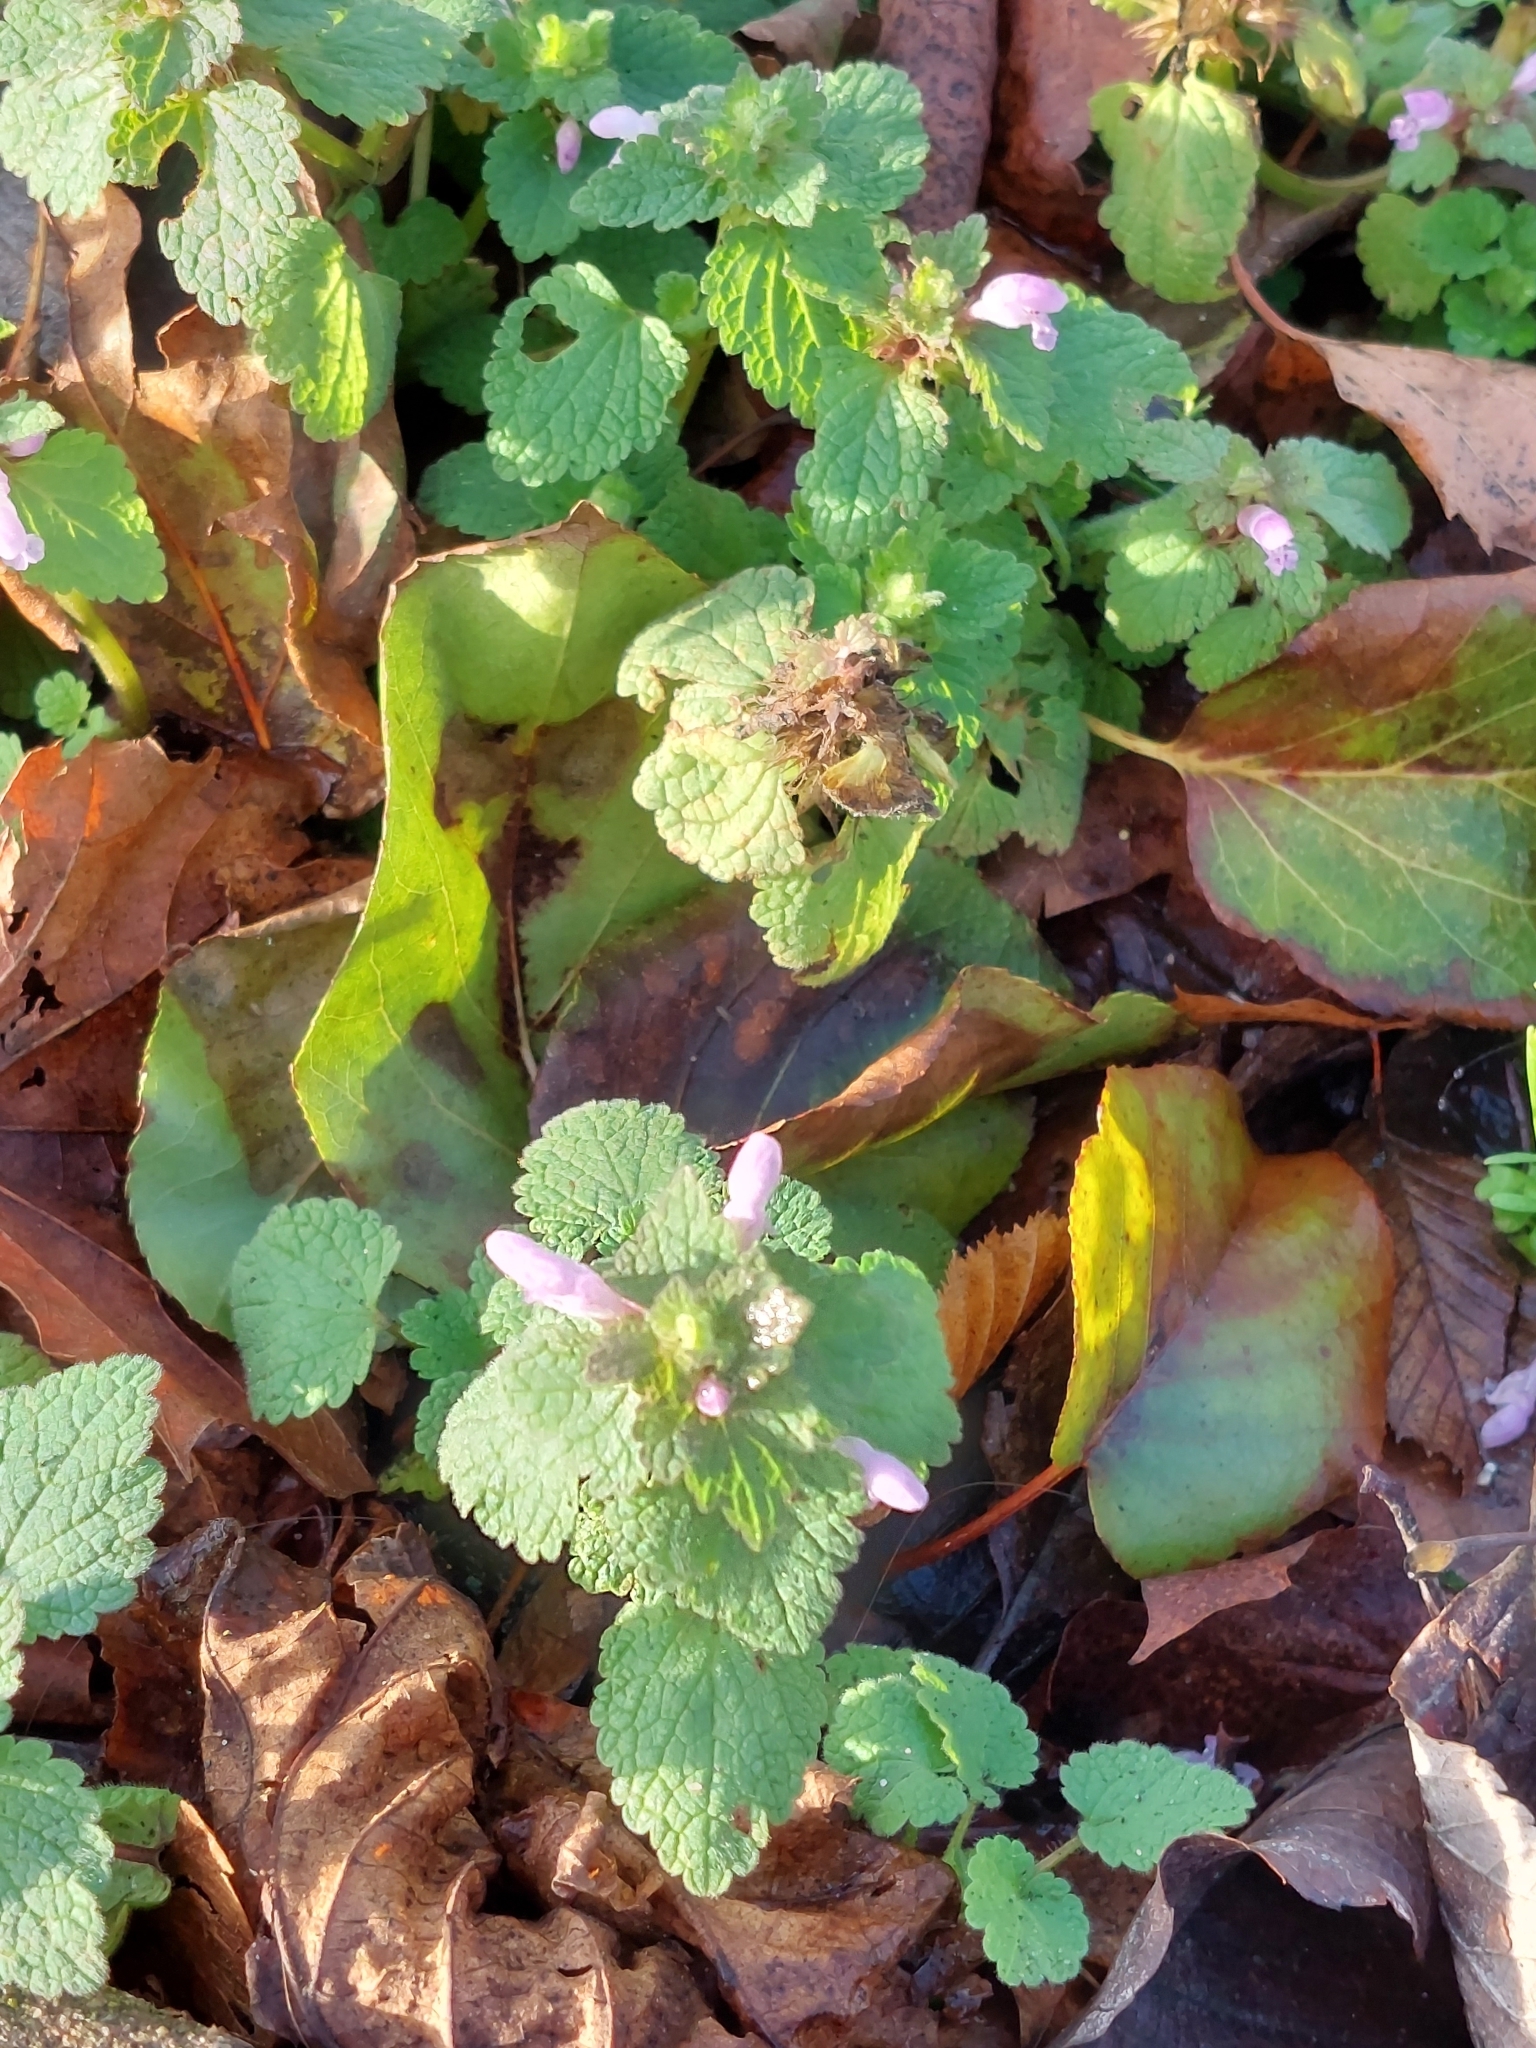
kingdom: Plantae
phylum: Tracheophyta
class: Magnoliopsida
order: Lamiales
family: Lamiaceae
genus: Lamium
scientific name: Lamium purpureum
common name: Red dead-nettle
